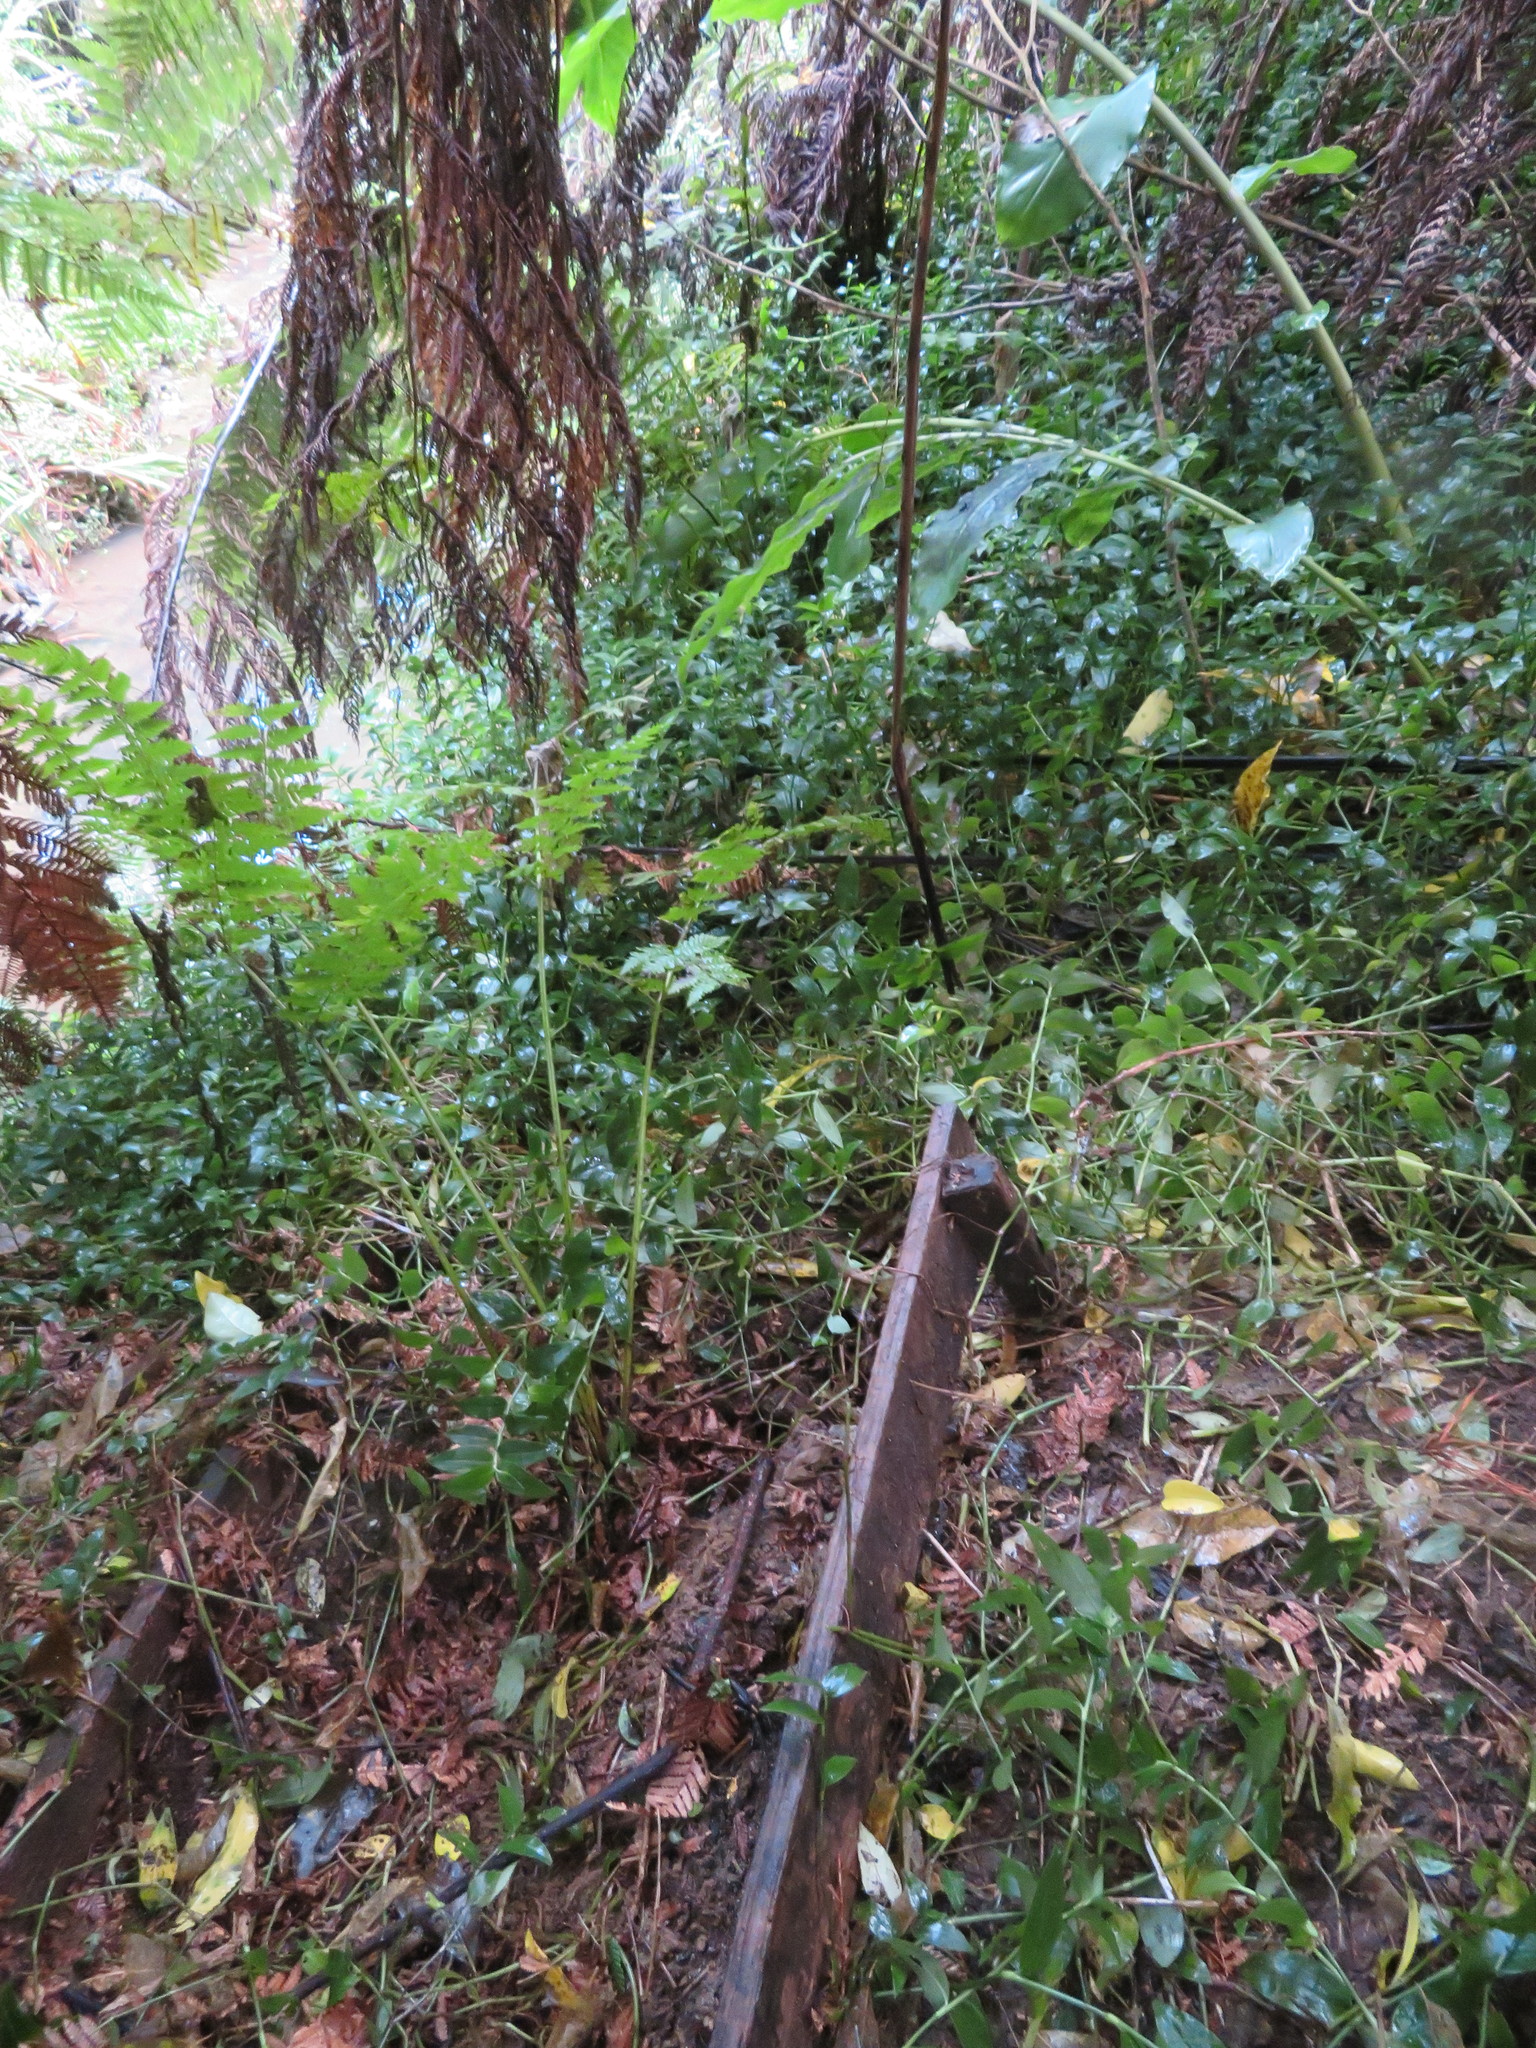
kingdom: Plantae
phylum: Tracheophyta
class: Liliopsida
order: Commelinales
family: Commelinaceae
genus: Tradescantia
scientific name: Tradescantia fluminensis
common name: Wandering-jew
